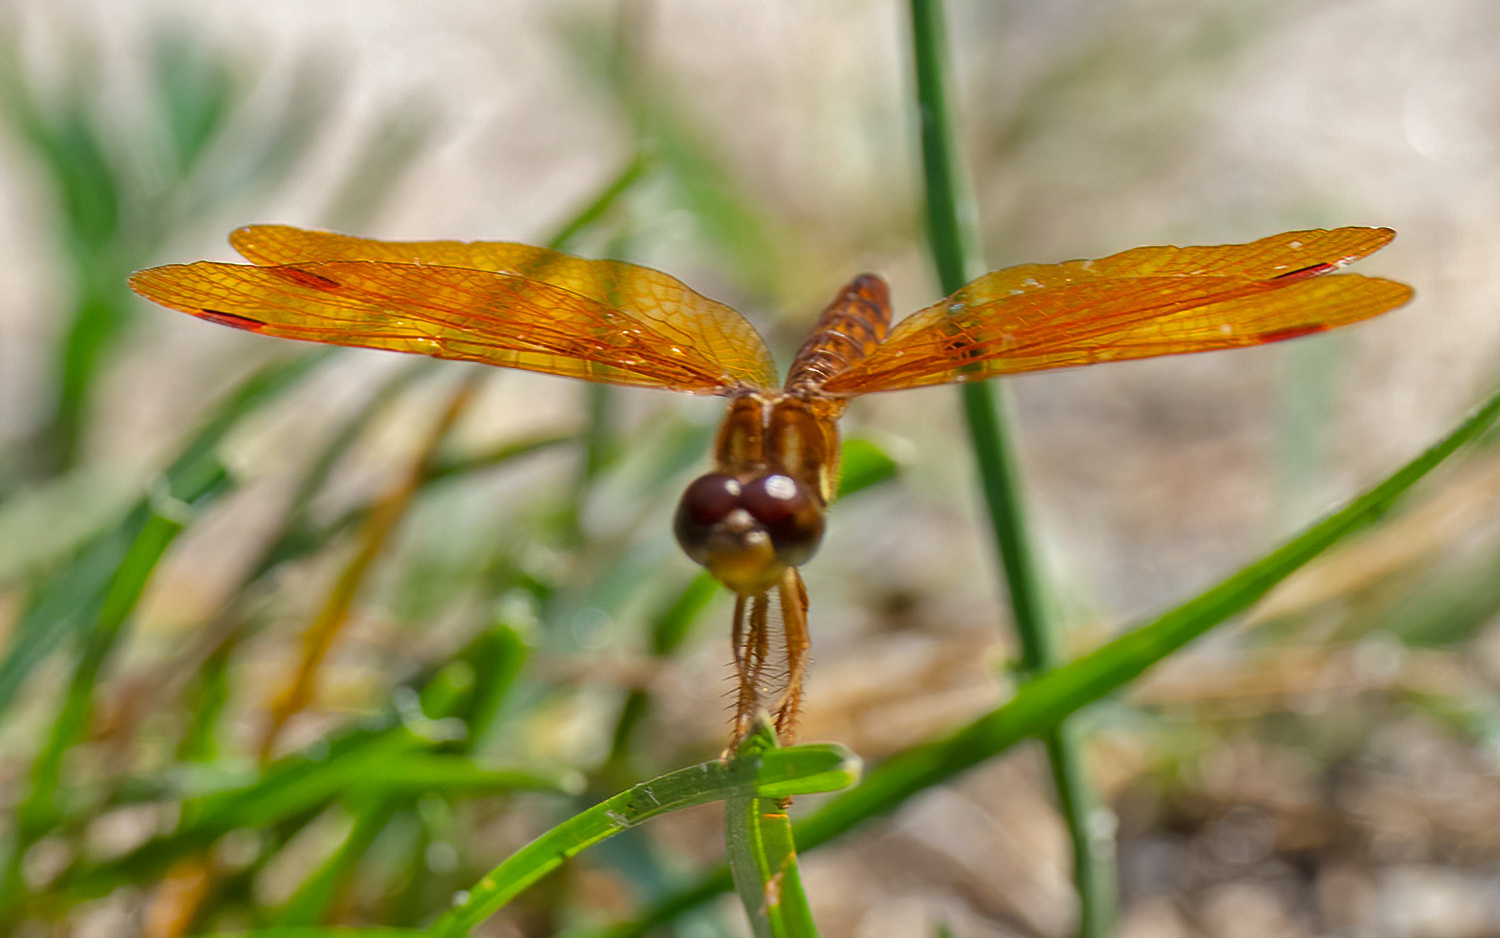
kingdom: Animalia
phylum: Arthropoda
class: Insecta
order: Odonata
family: Libellulidae
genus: Perithemis
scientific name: Perithemis tenera
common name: Eastern amberwing
